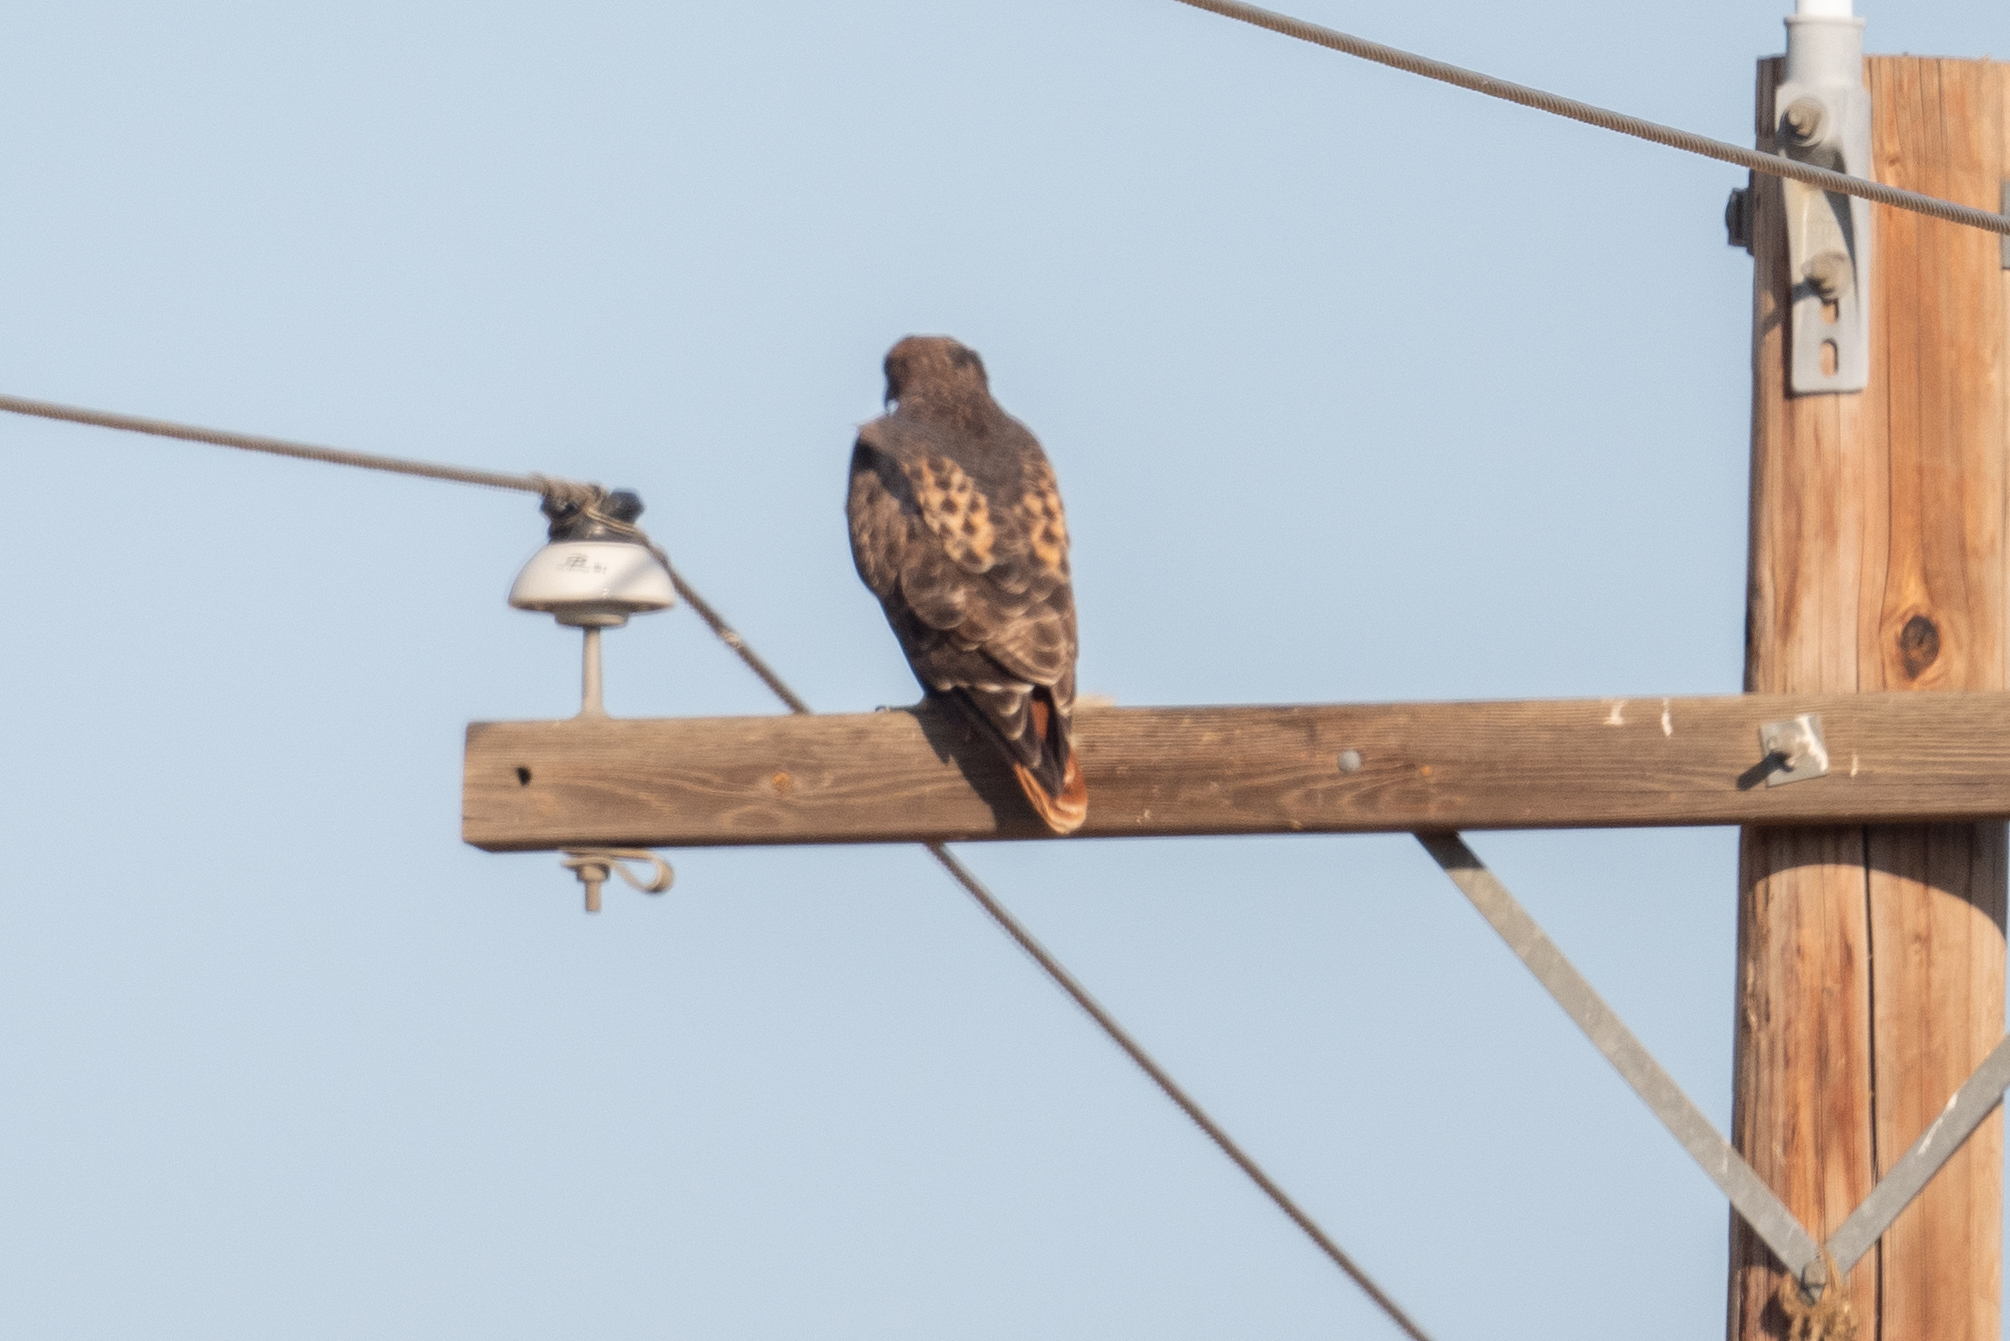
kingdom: Animalia
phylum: Chordata
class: Aves
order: Accipitriformes
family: Accipitridae
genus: Buteo
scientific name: Buteo jamaicensis
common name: Red-tailed hawk
